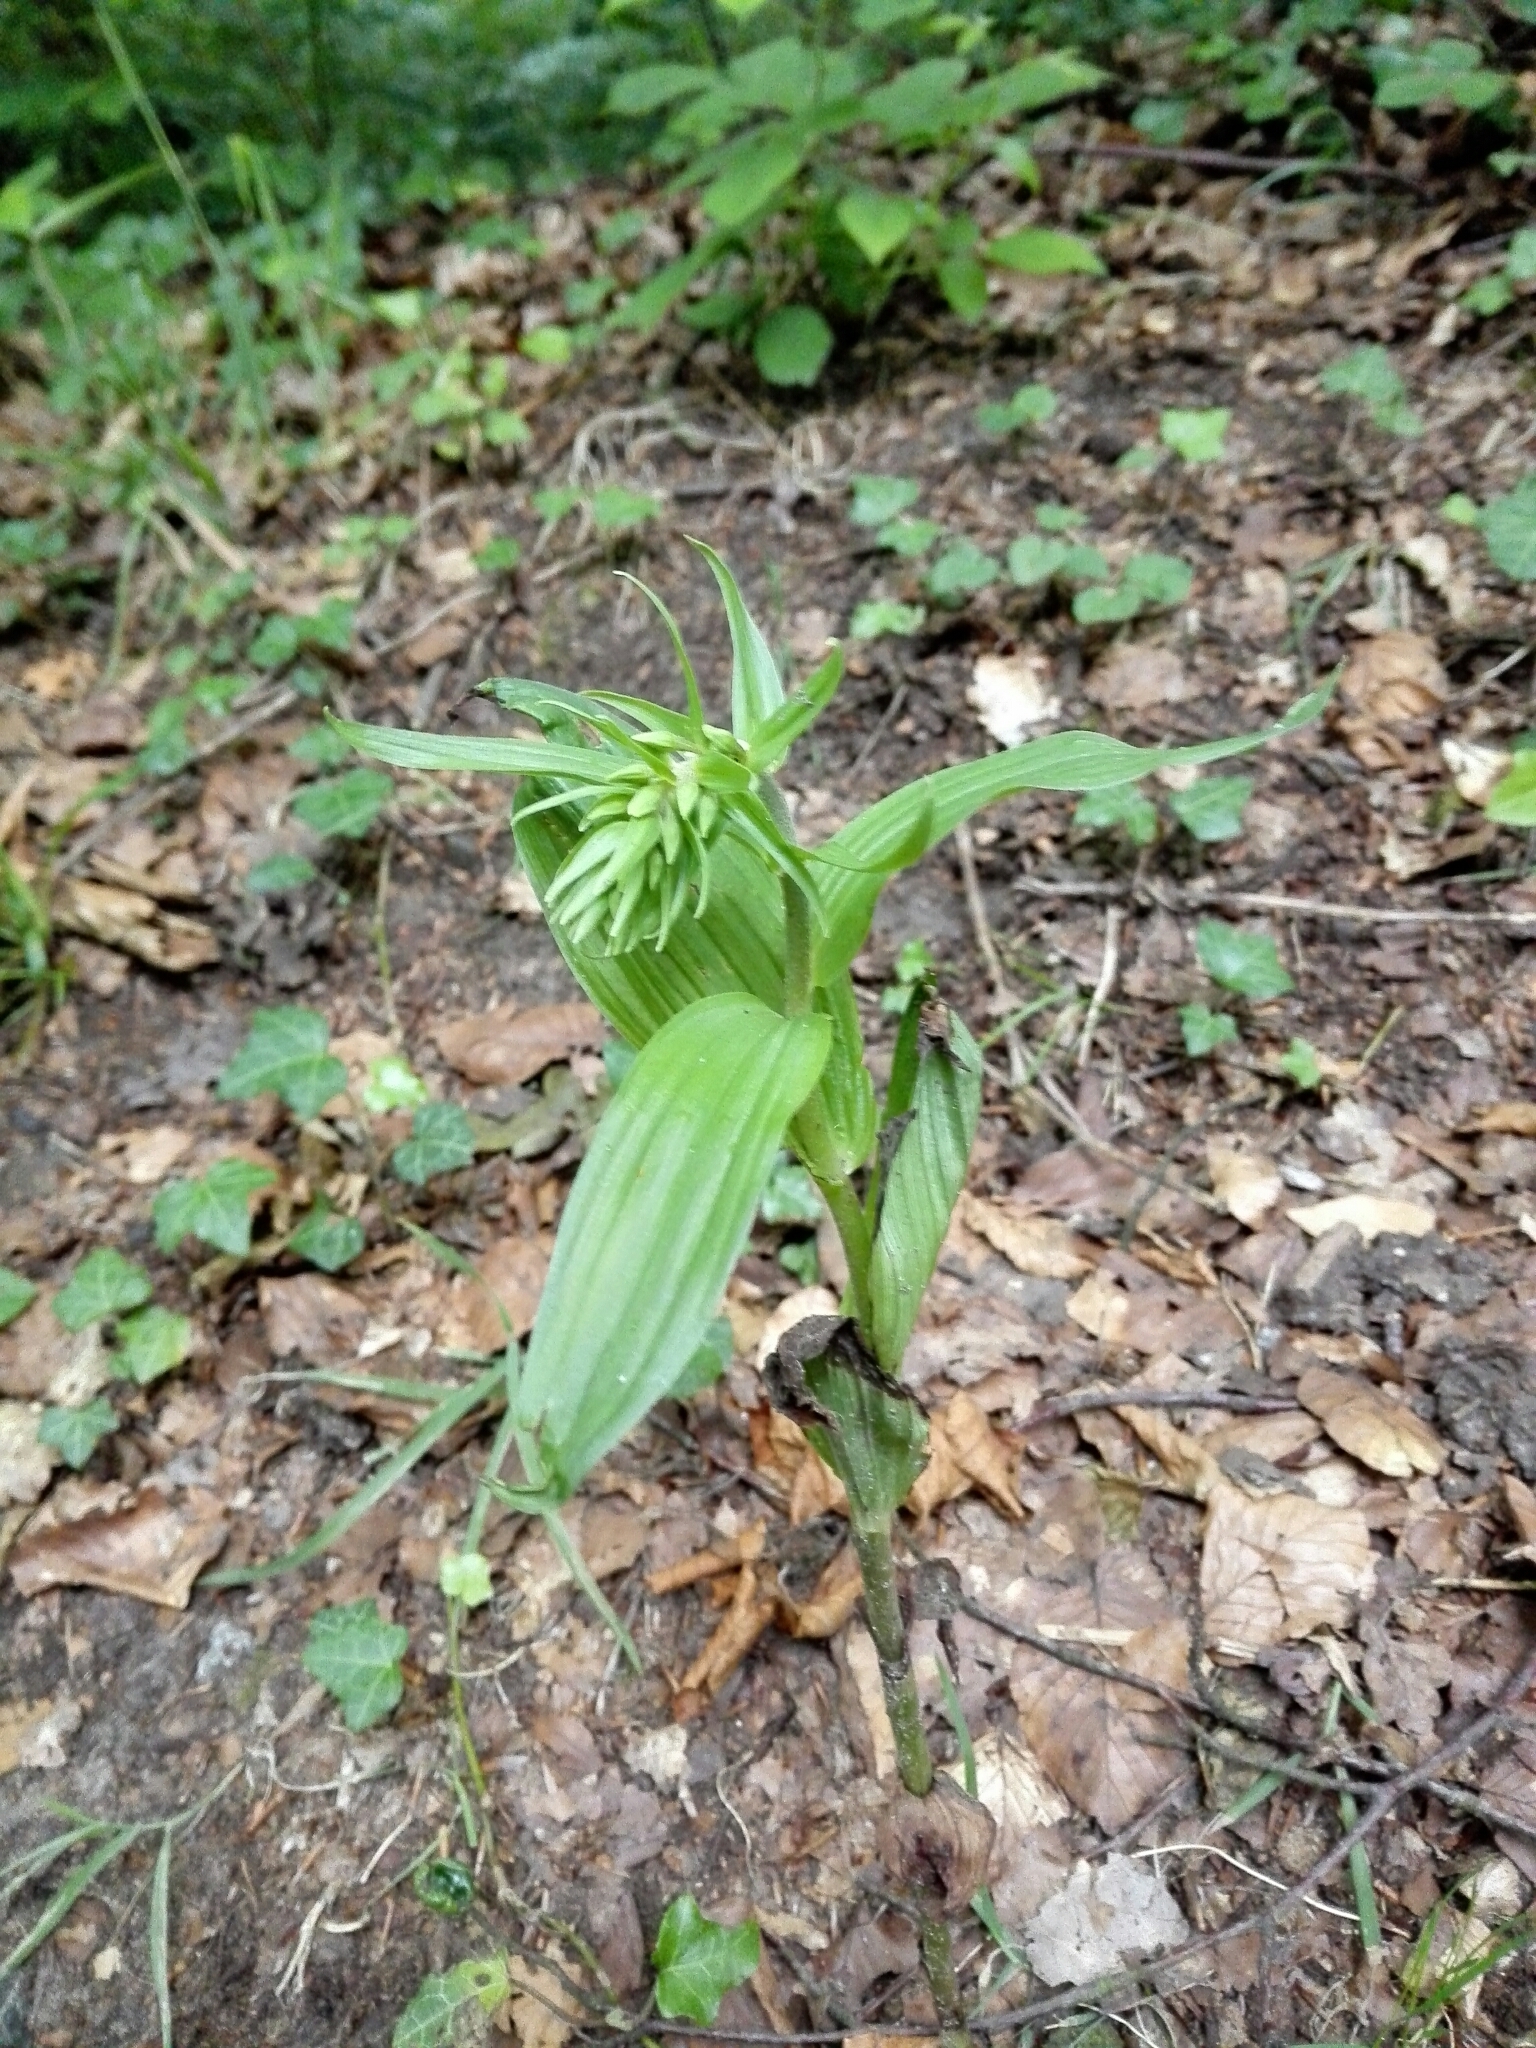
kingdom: Plantae
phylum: Tracheophyta
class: Liliopsida
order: Asparagales
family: Orchidaceae
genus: Epipactis
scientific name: Epipactis helleborine
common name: Broad-leaved helleborine
